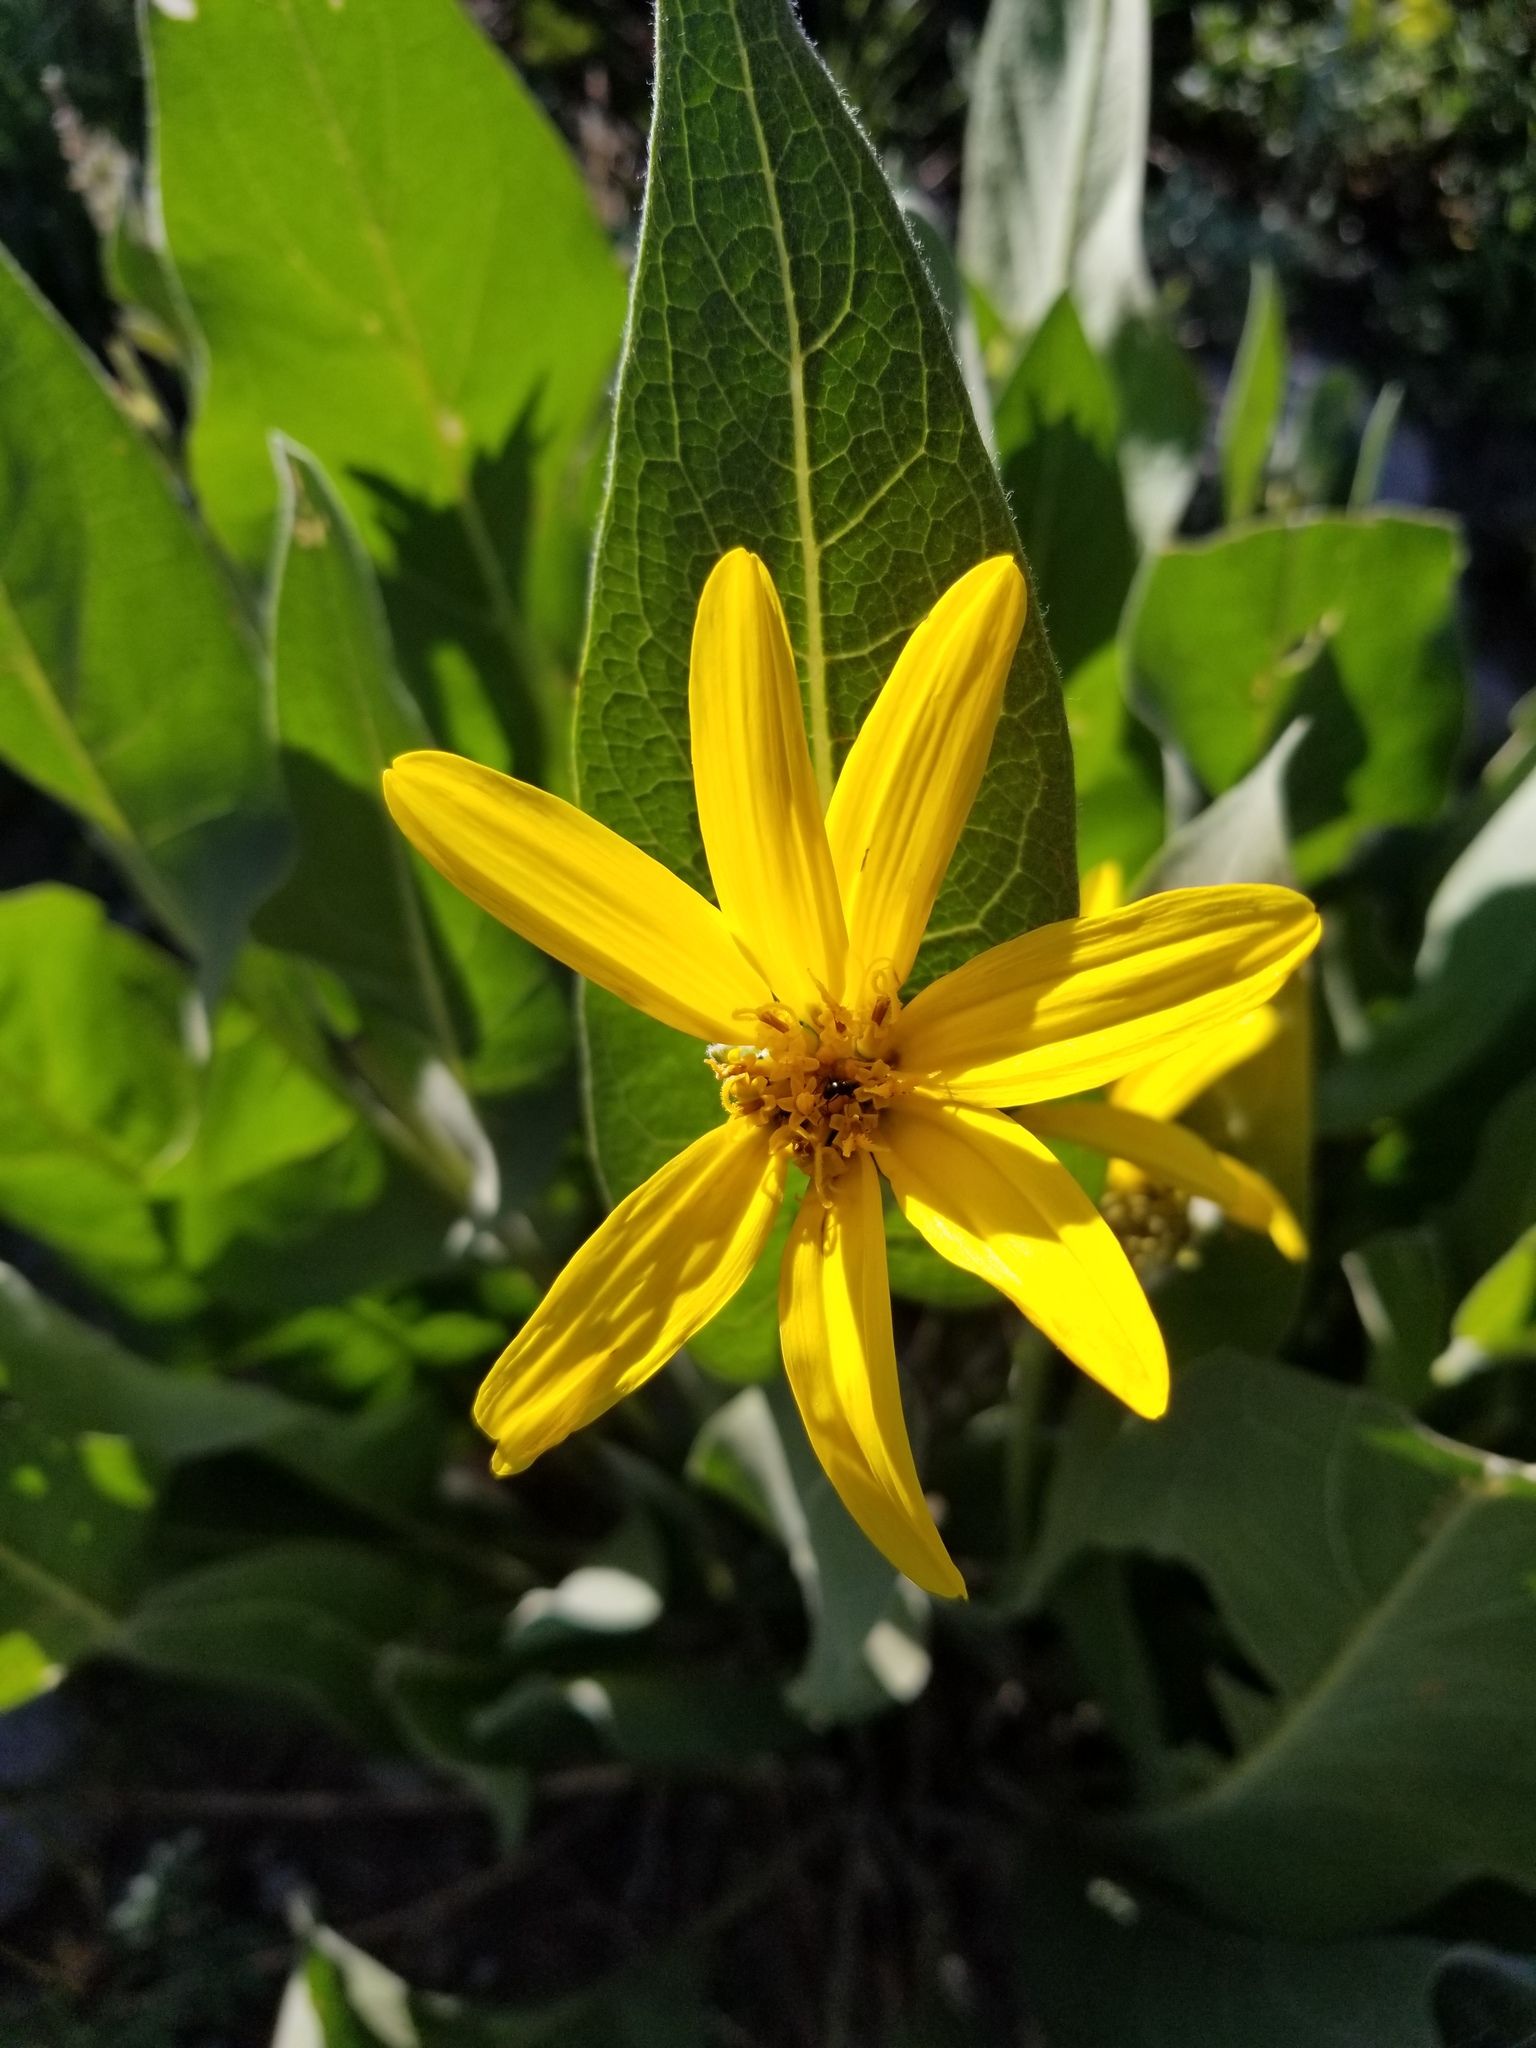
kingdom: Plantae
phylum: Tracheophyta
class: Magnoliopsida
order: Asterales
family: Asteraceae
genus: Wyethia
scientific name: Wyethia mollis
